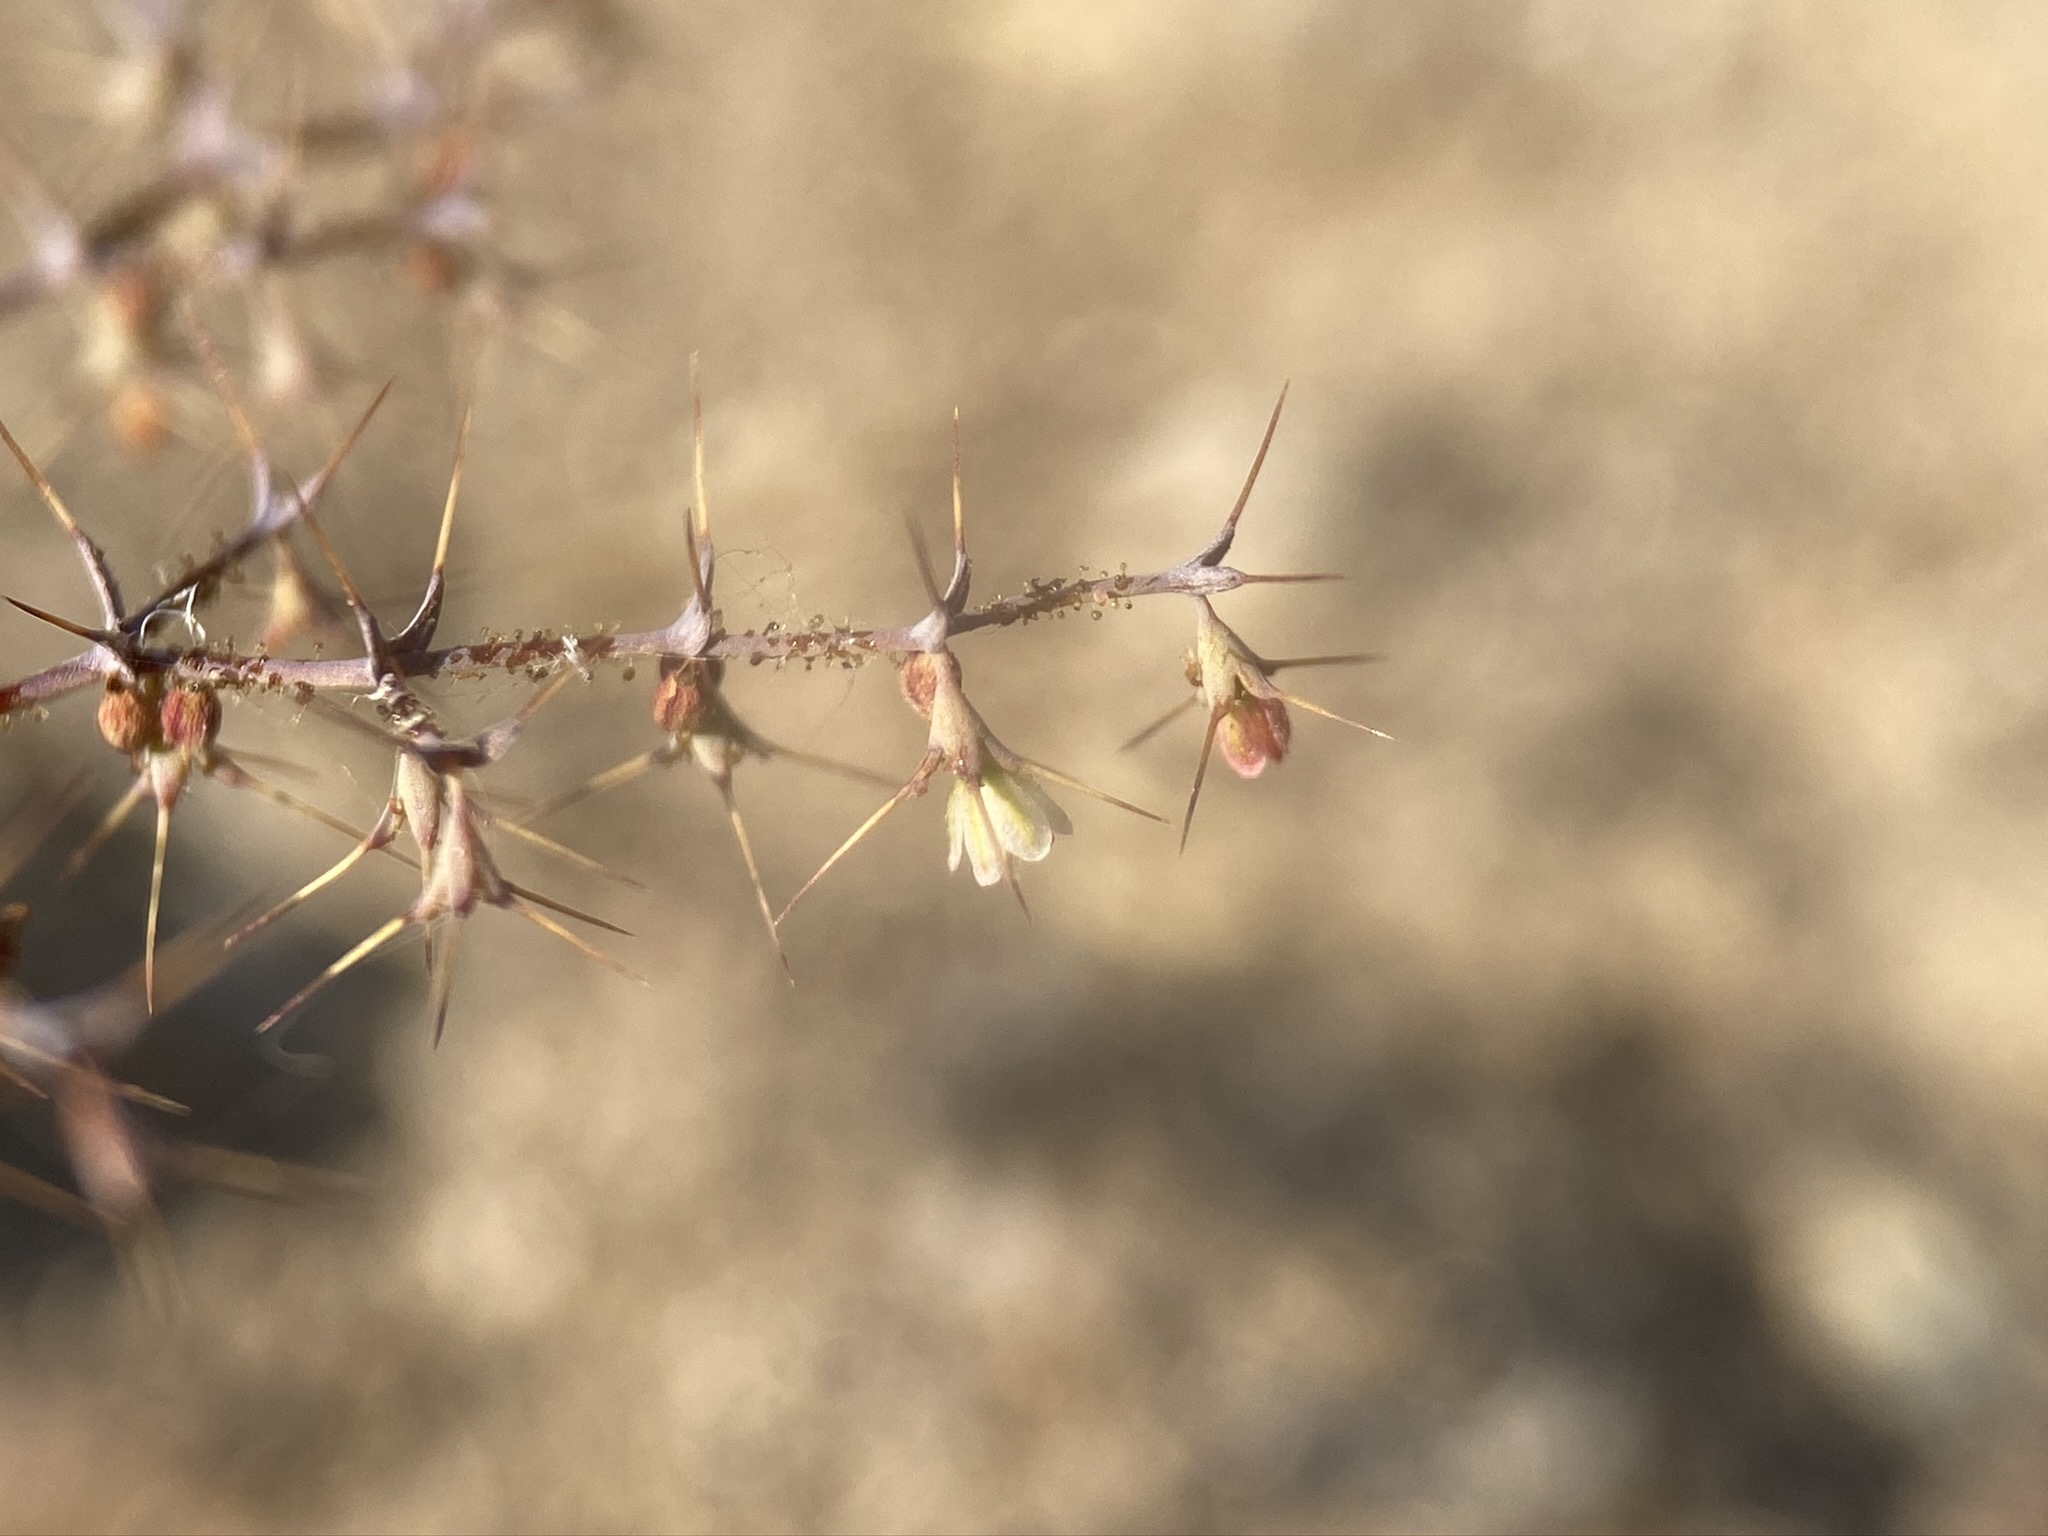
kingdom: Plantae
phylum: Tracheophyta
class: Magnoliopsida
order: Caryophyllales
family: Polygonaceae
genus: Oxytheca
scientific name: Oxytheca watsonii
